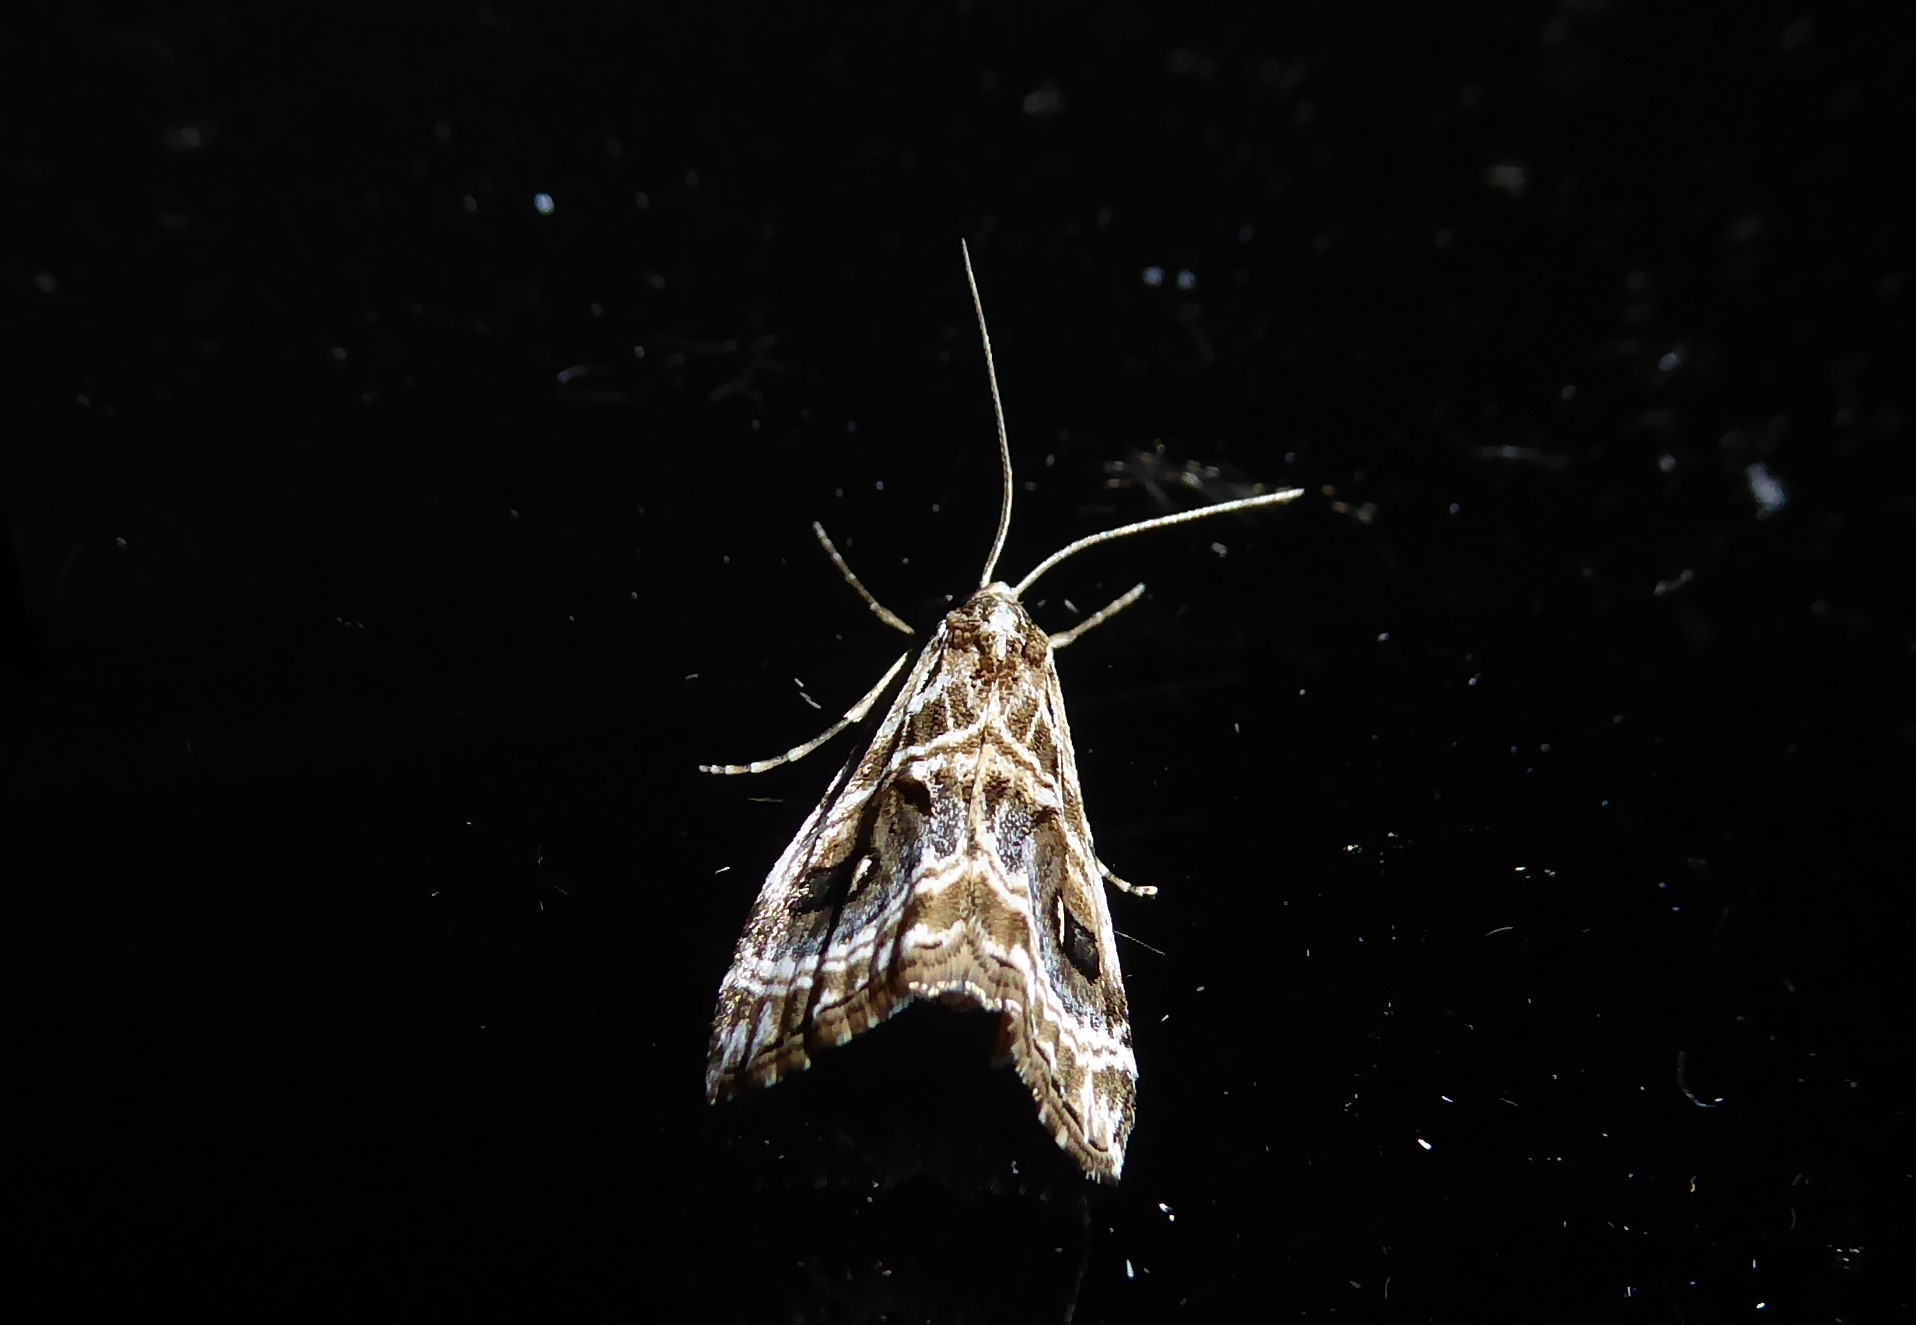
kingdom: Animalia
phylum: Arthropoda
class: Insecta
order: Lepidoptera
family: Crambidae
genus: Gadira
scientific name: Gadira acerella
